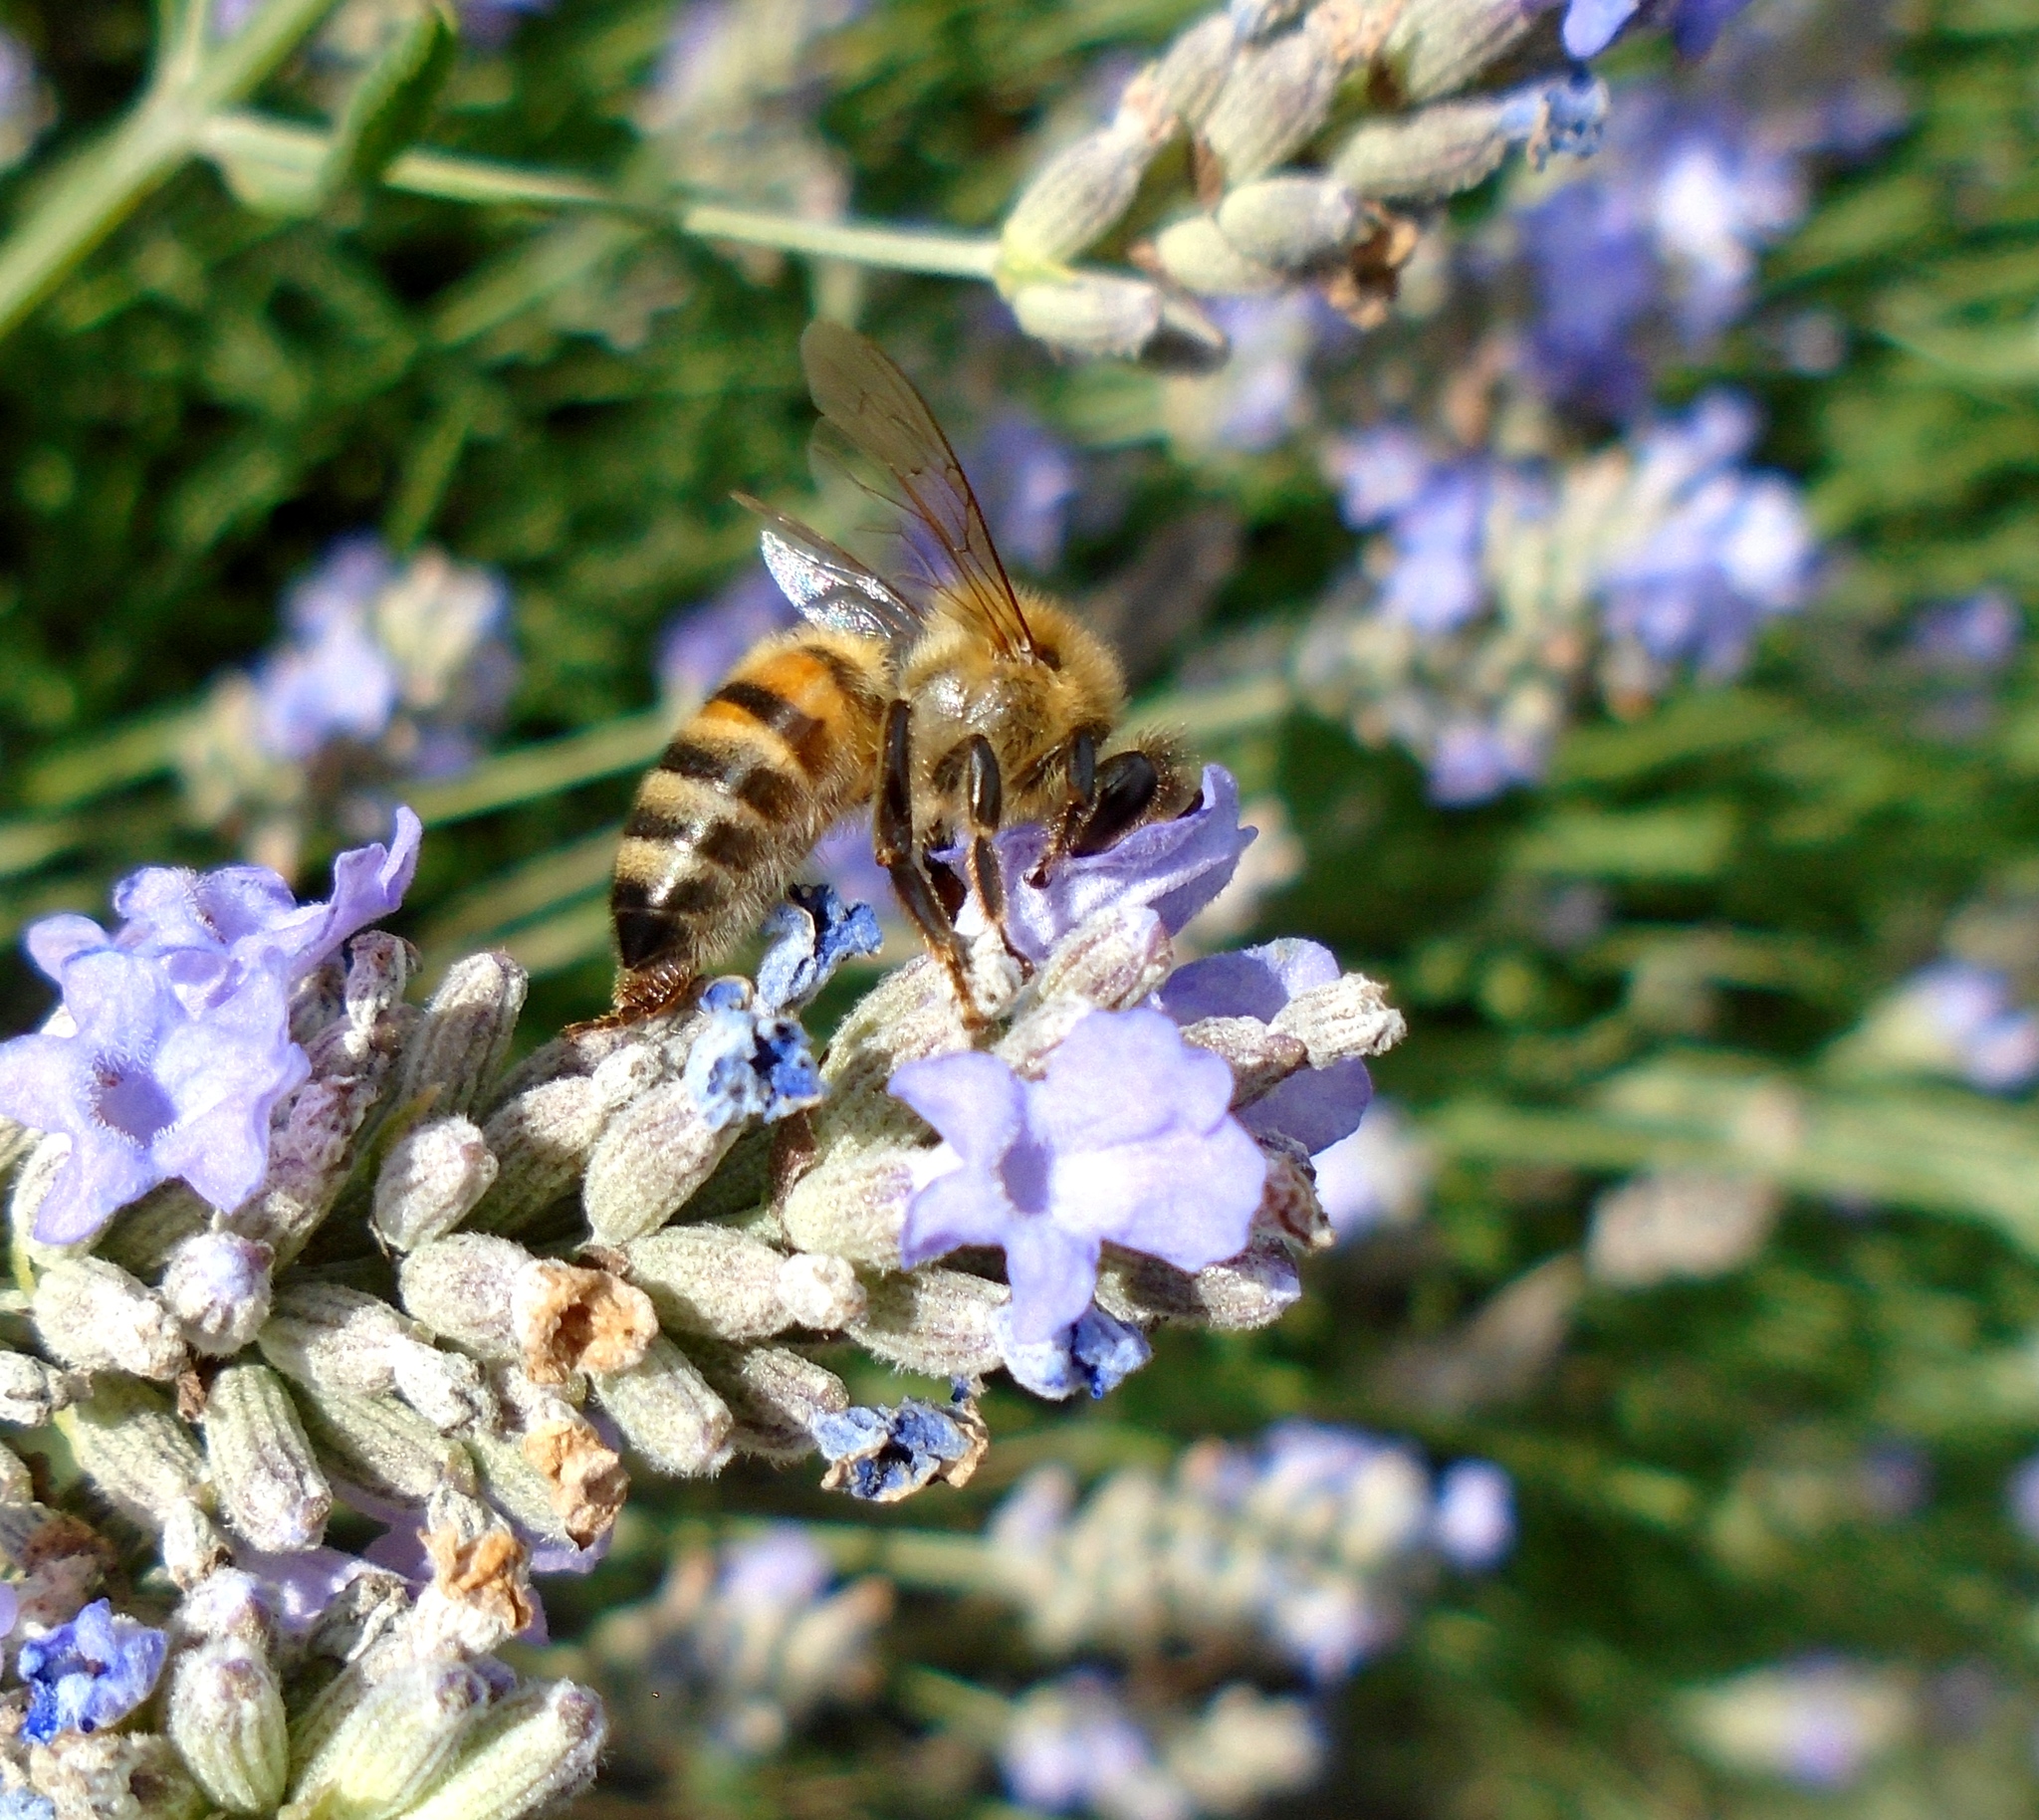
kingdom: Animalia
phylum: Arthropoda
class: Insecta
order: Hymenoptera
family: Apidae
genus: Apis
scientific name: Apis mellifera
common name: Honey bee
